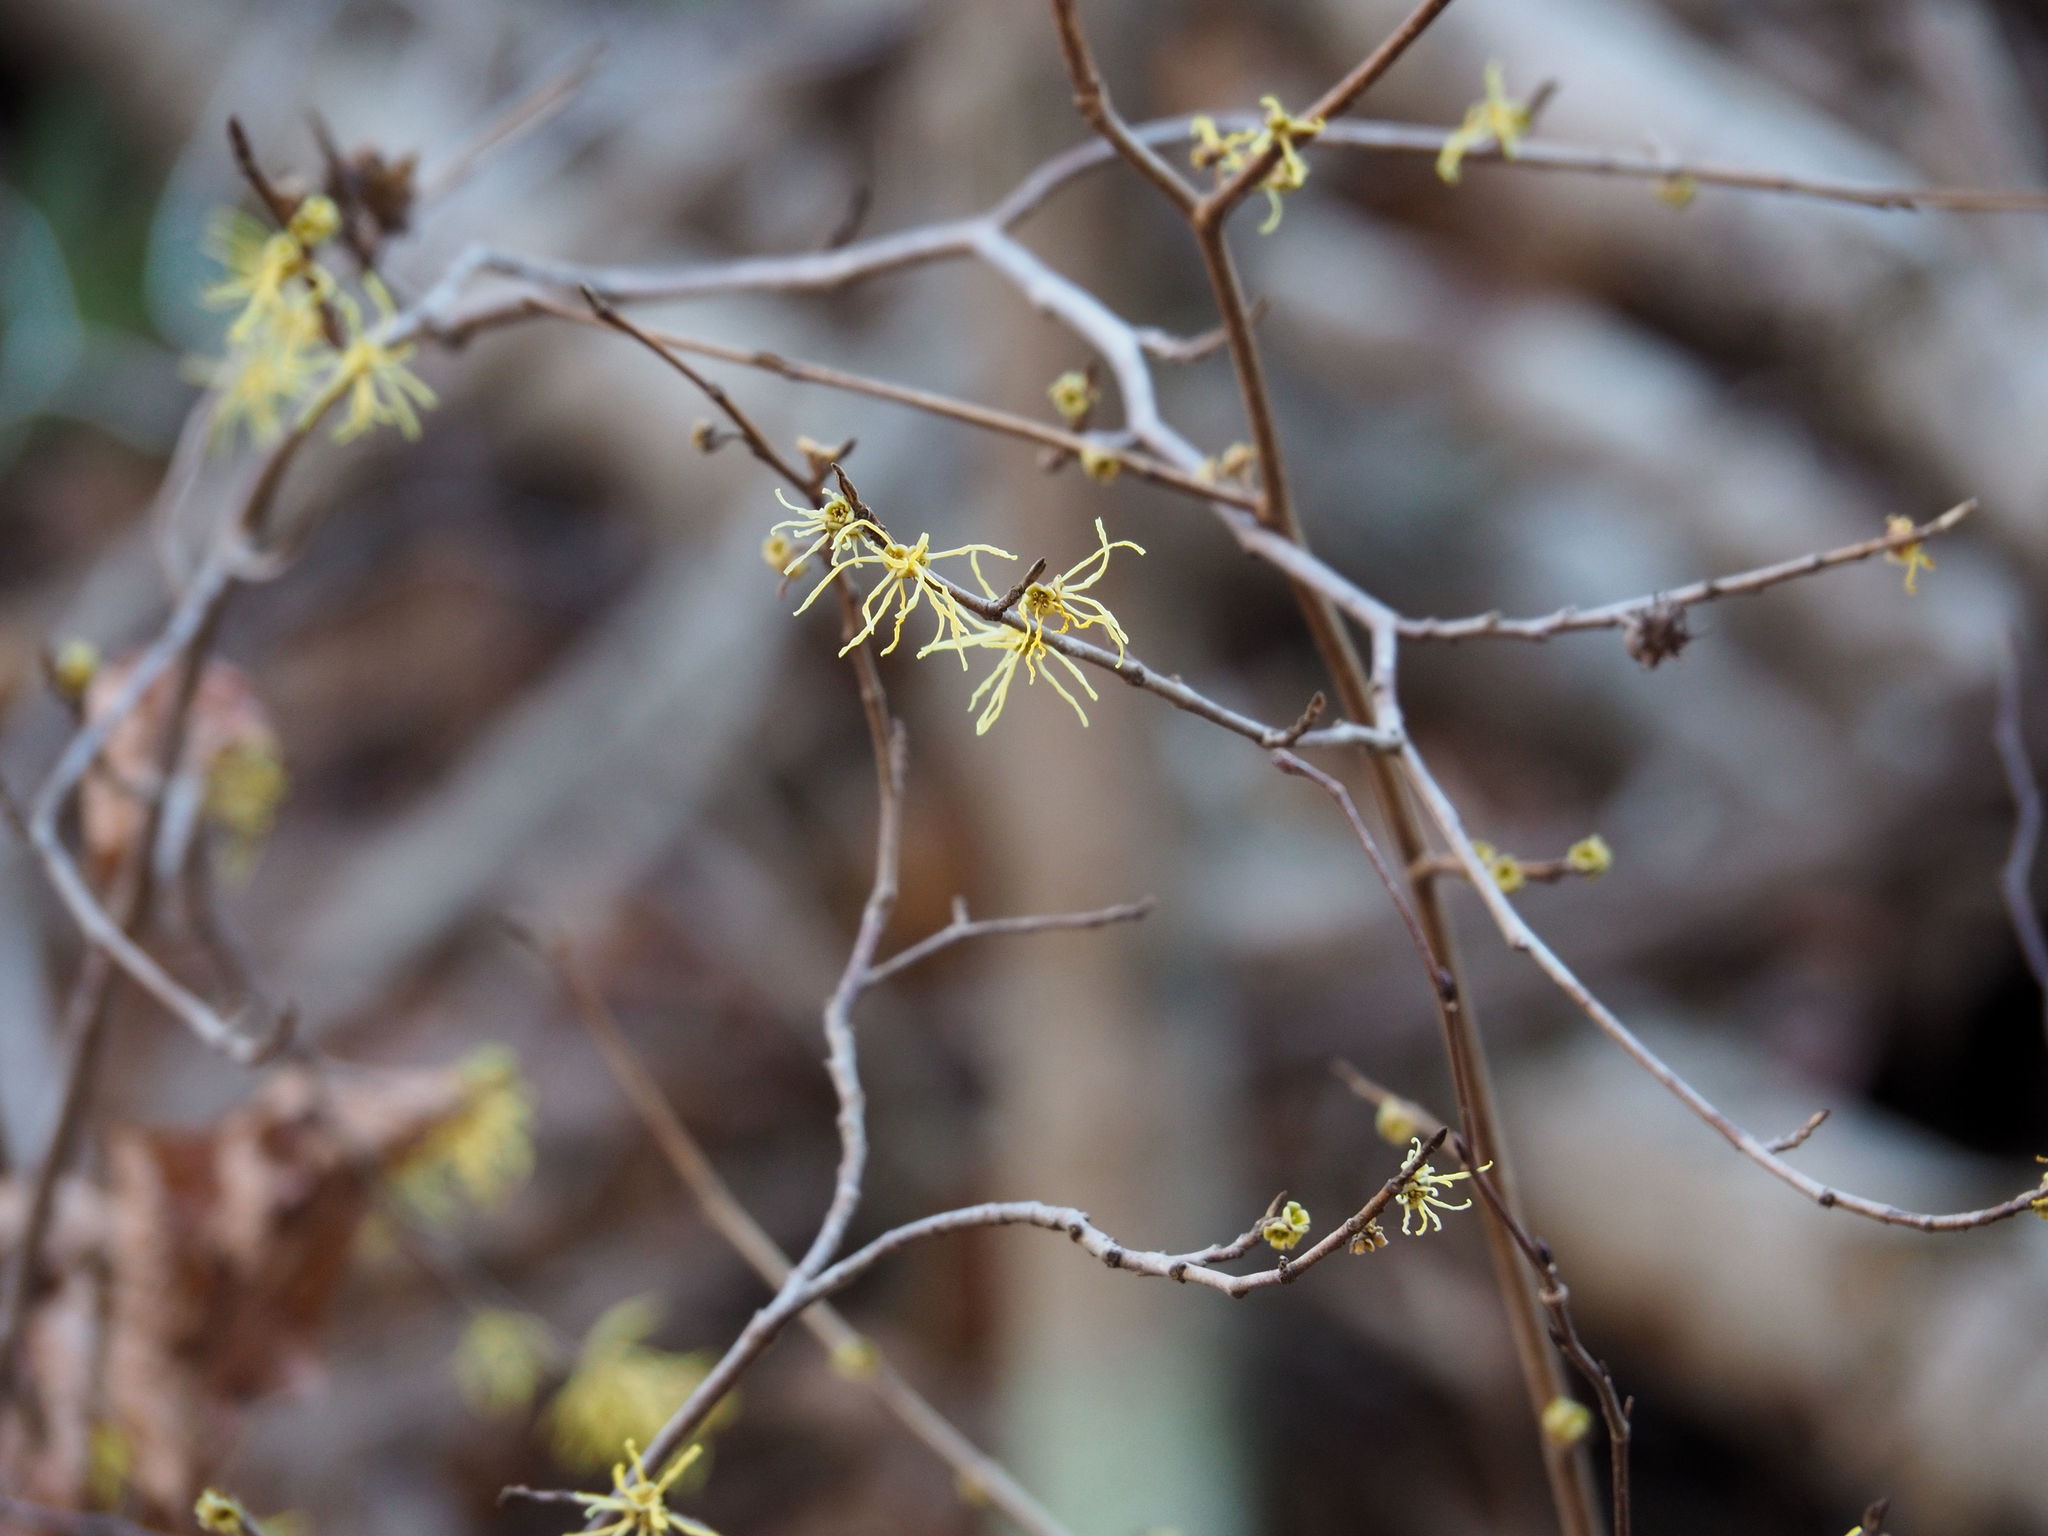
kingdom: Plantae
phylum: Tracheophyta
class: Magnoliopsida
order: Saxifragales
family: Hamamelidaceae
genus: Hamamelis
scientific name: Hamamelis virginiana
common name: Witch-hazel
